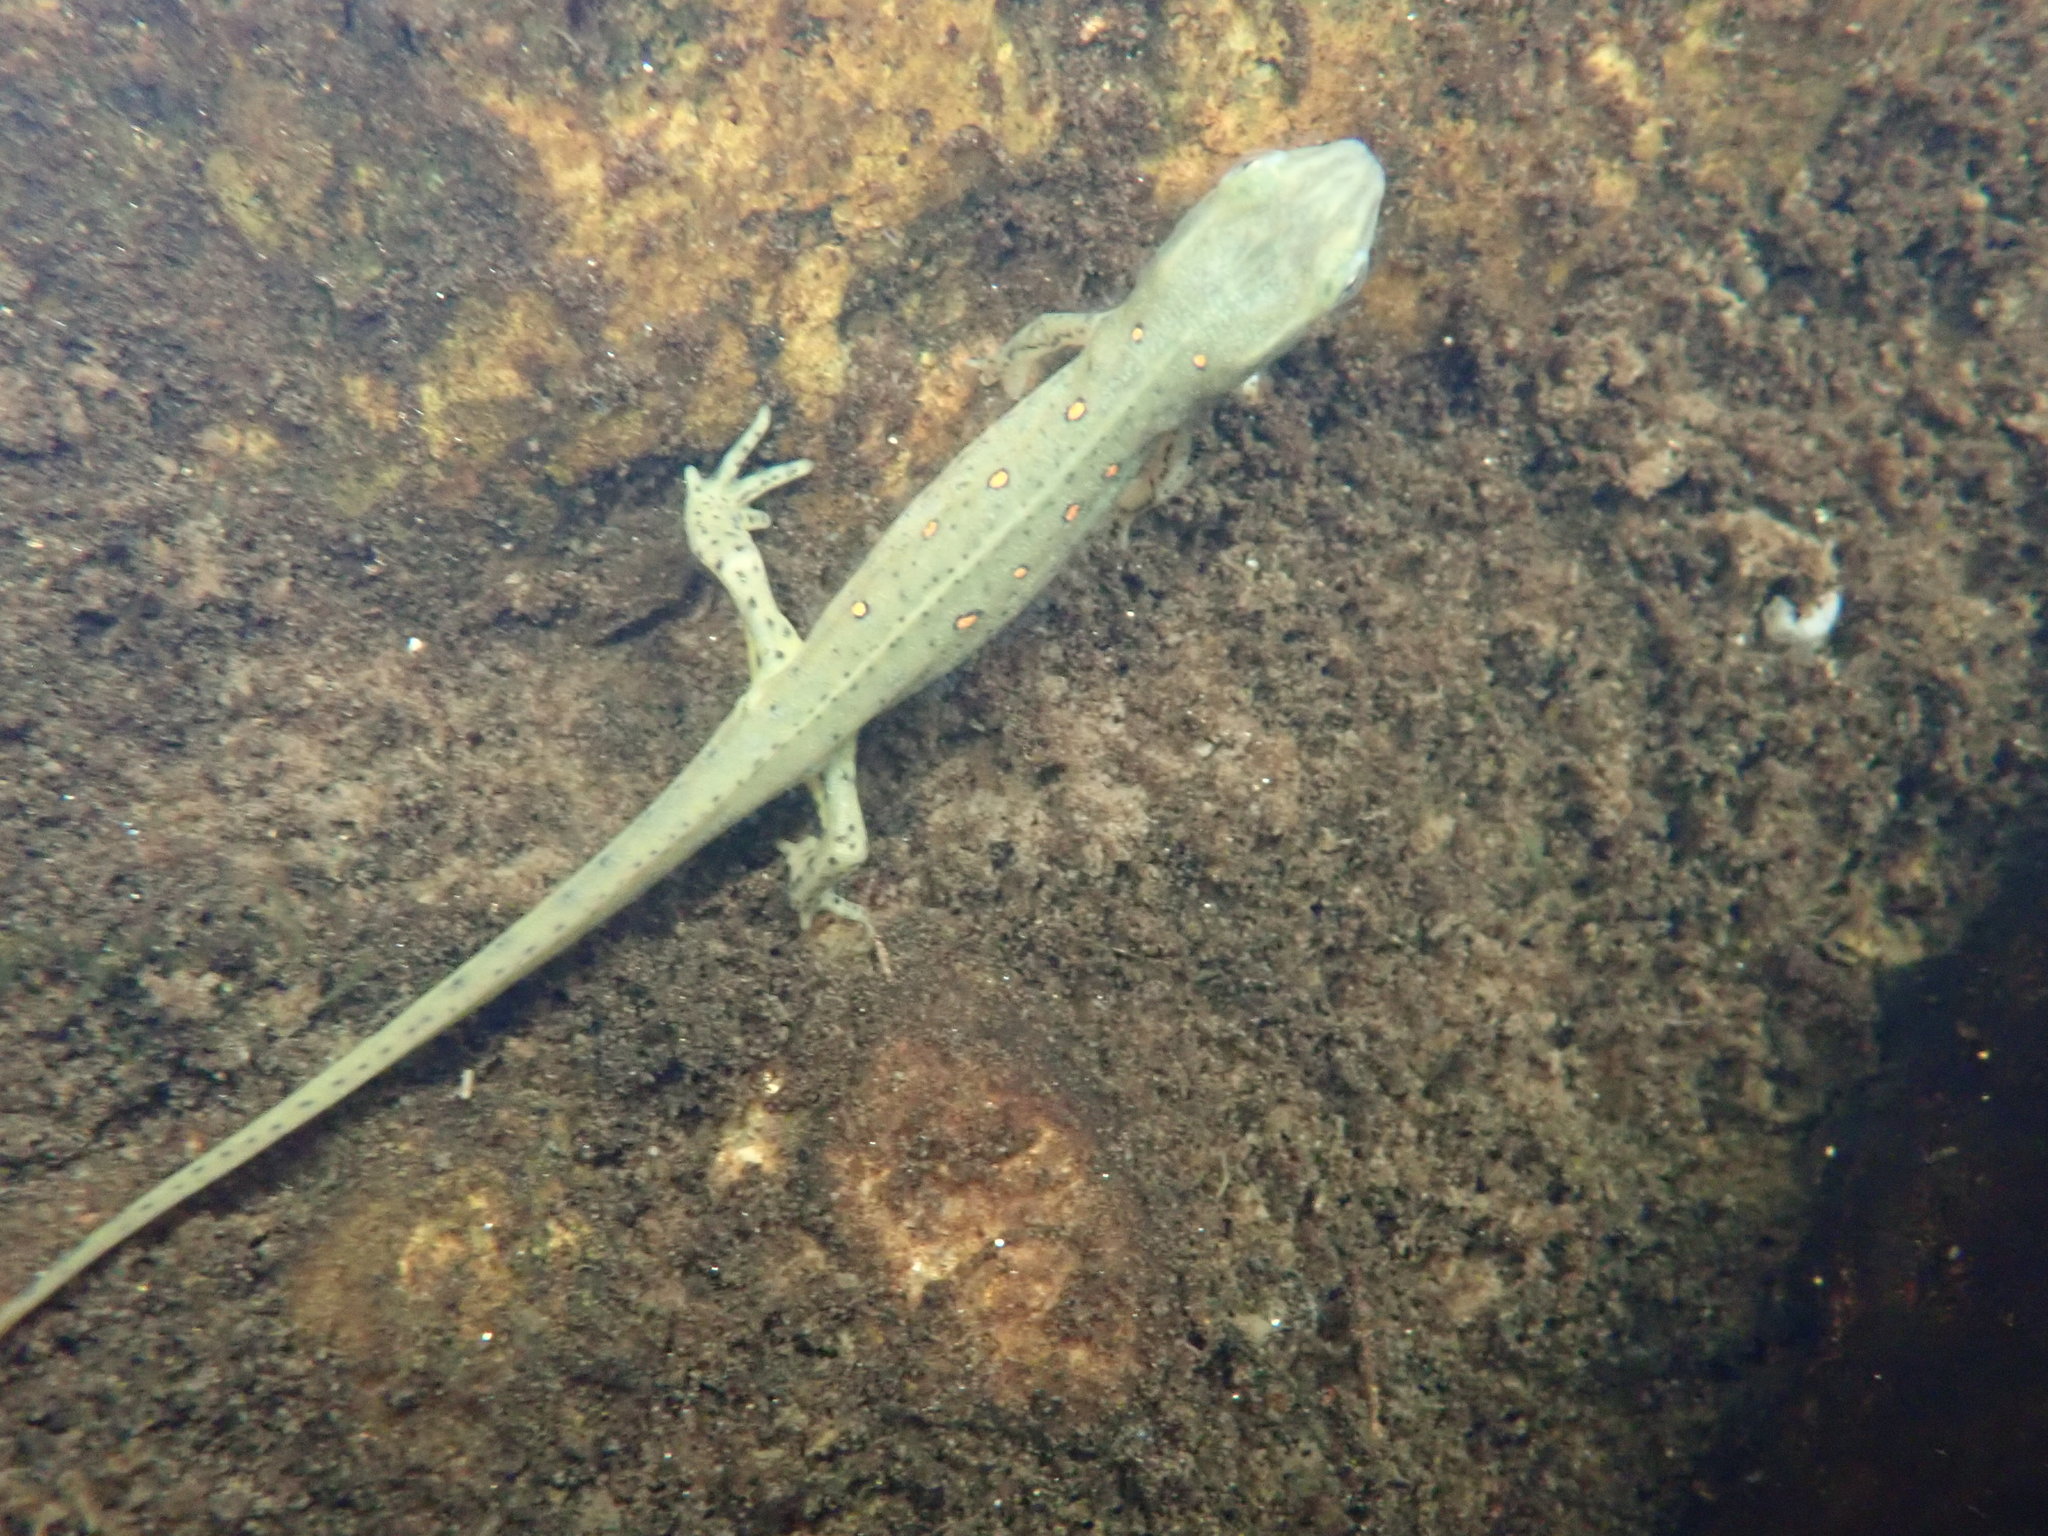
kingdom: Animalia
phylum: Chordata
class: Amphibia
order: Caudata
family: Salamandridae
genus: Notophthalmus
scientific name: Notophthalmus viridescens
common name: Eastern newt
